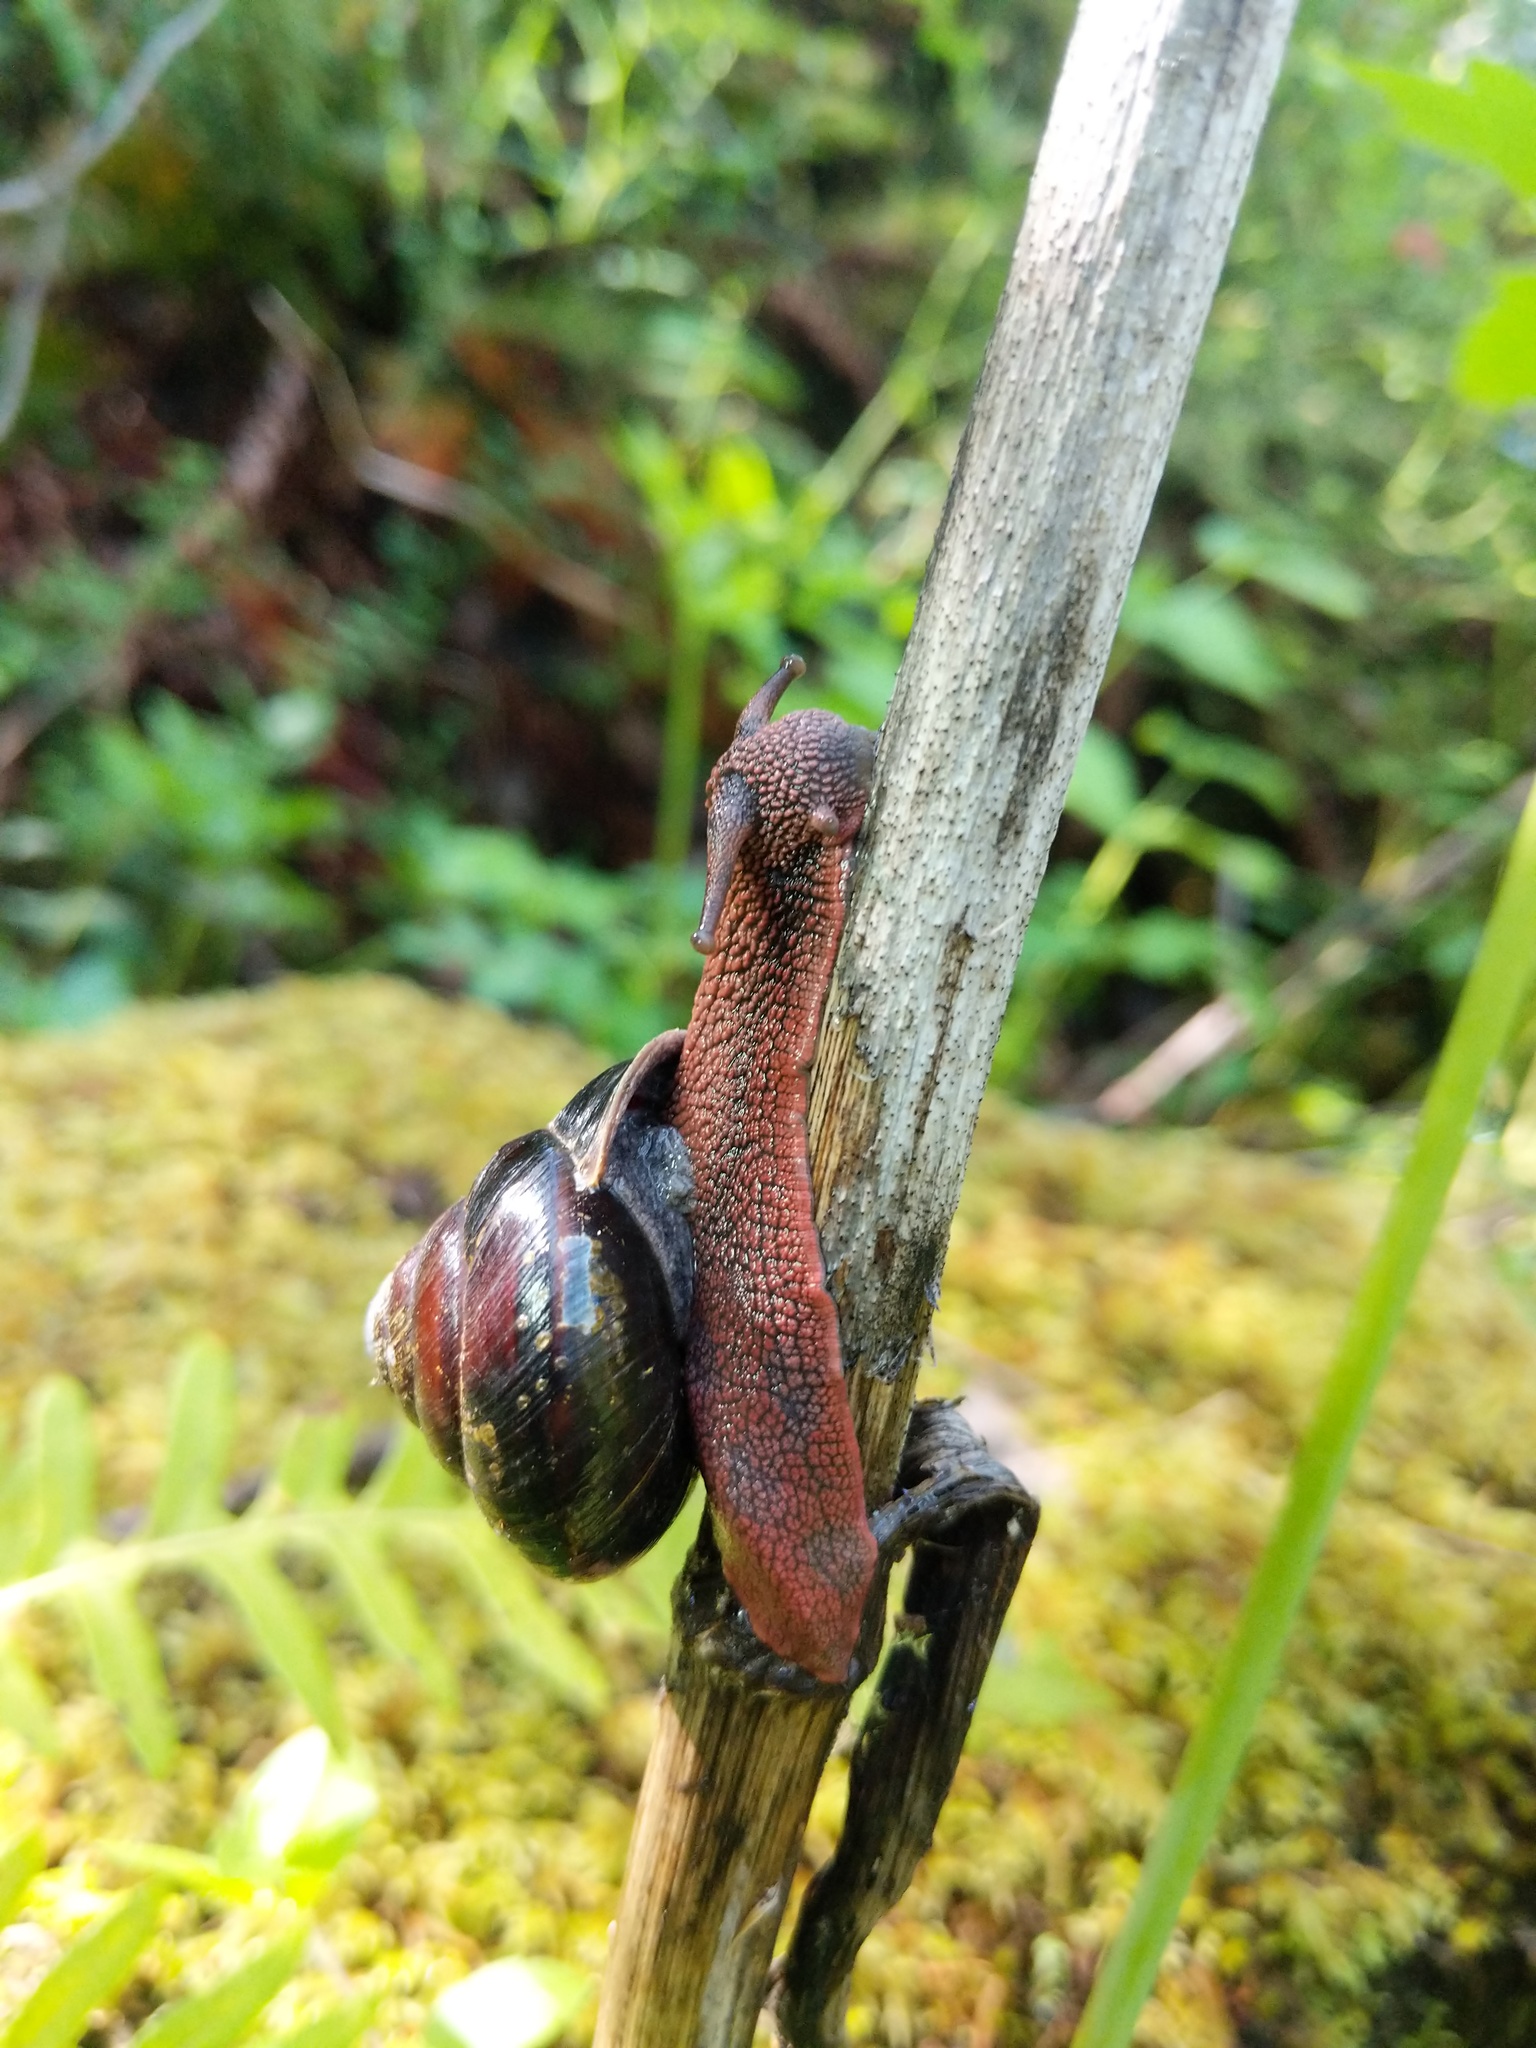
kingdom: Animalia
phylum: Mollusca
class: Gastropoda
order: Stylommatophora
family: Xanthonychidae
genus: Monadenia
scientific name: Monadenia fidelis
